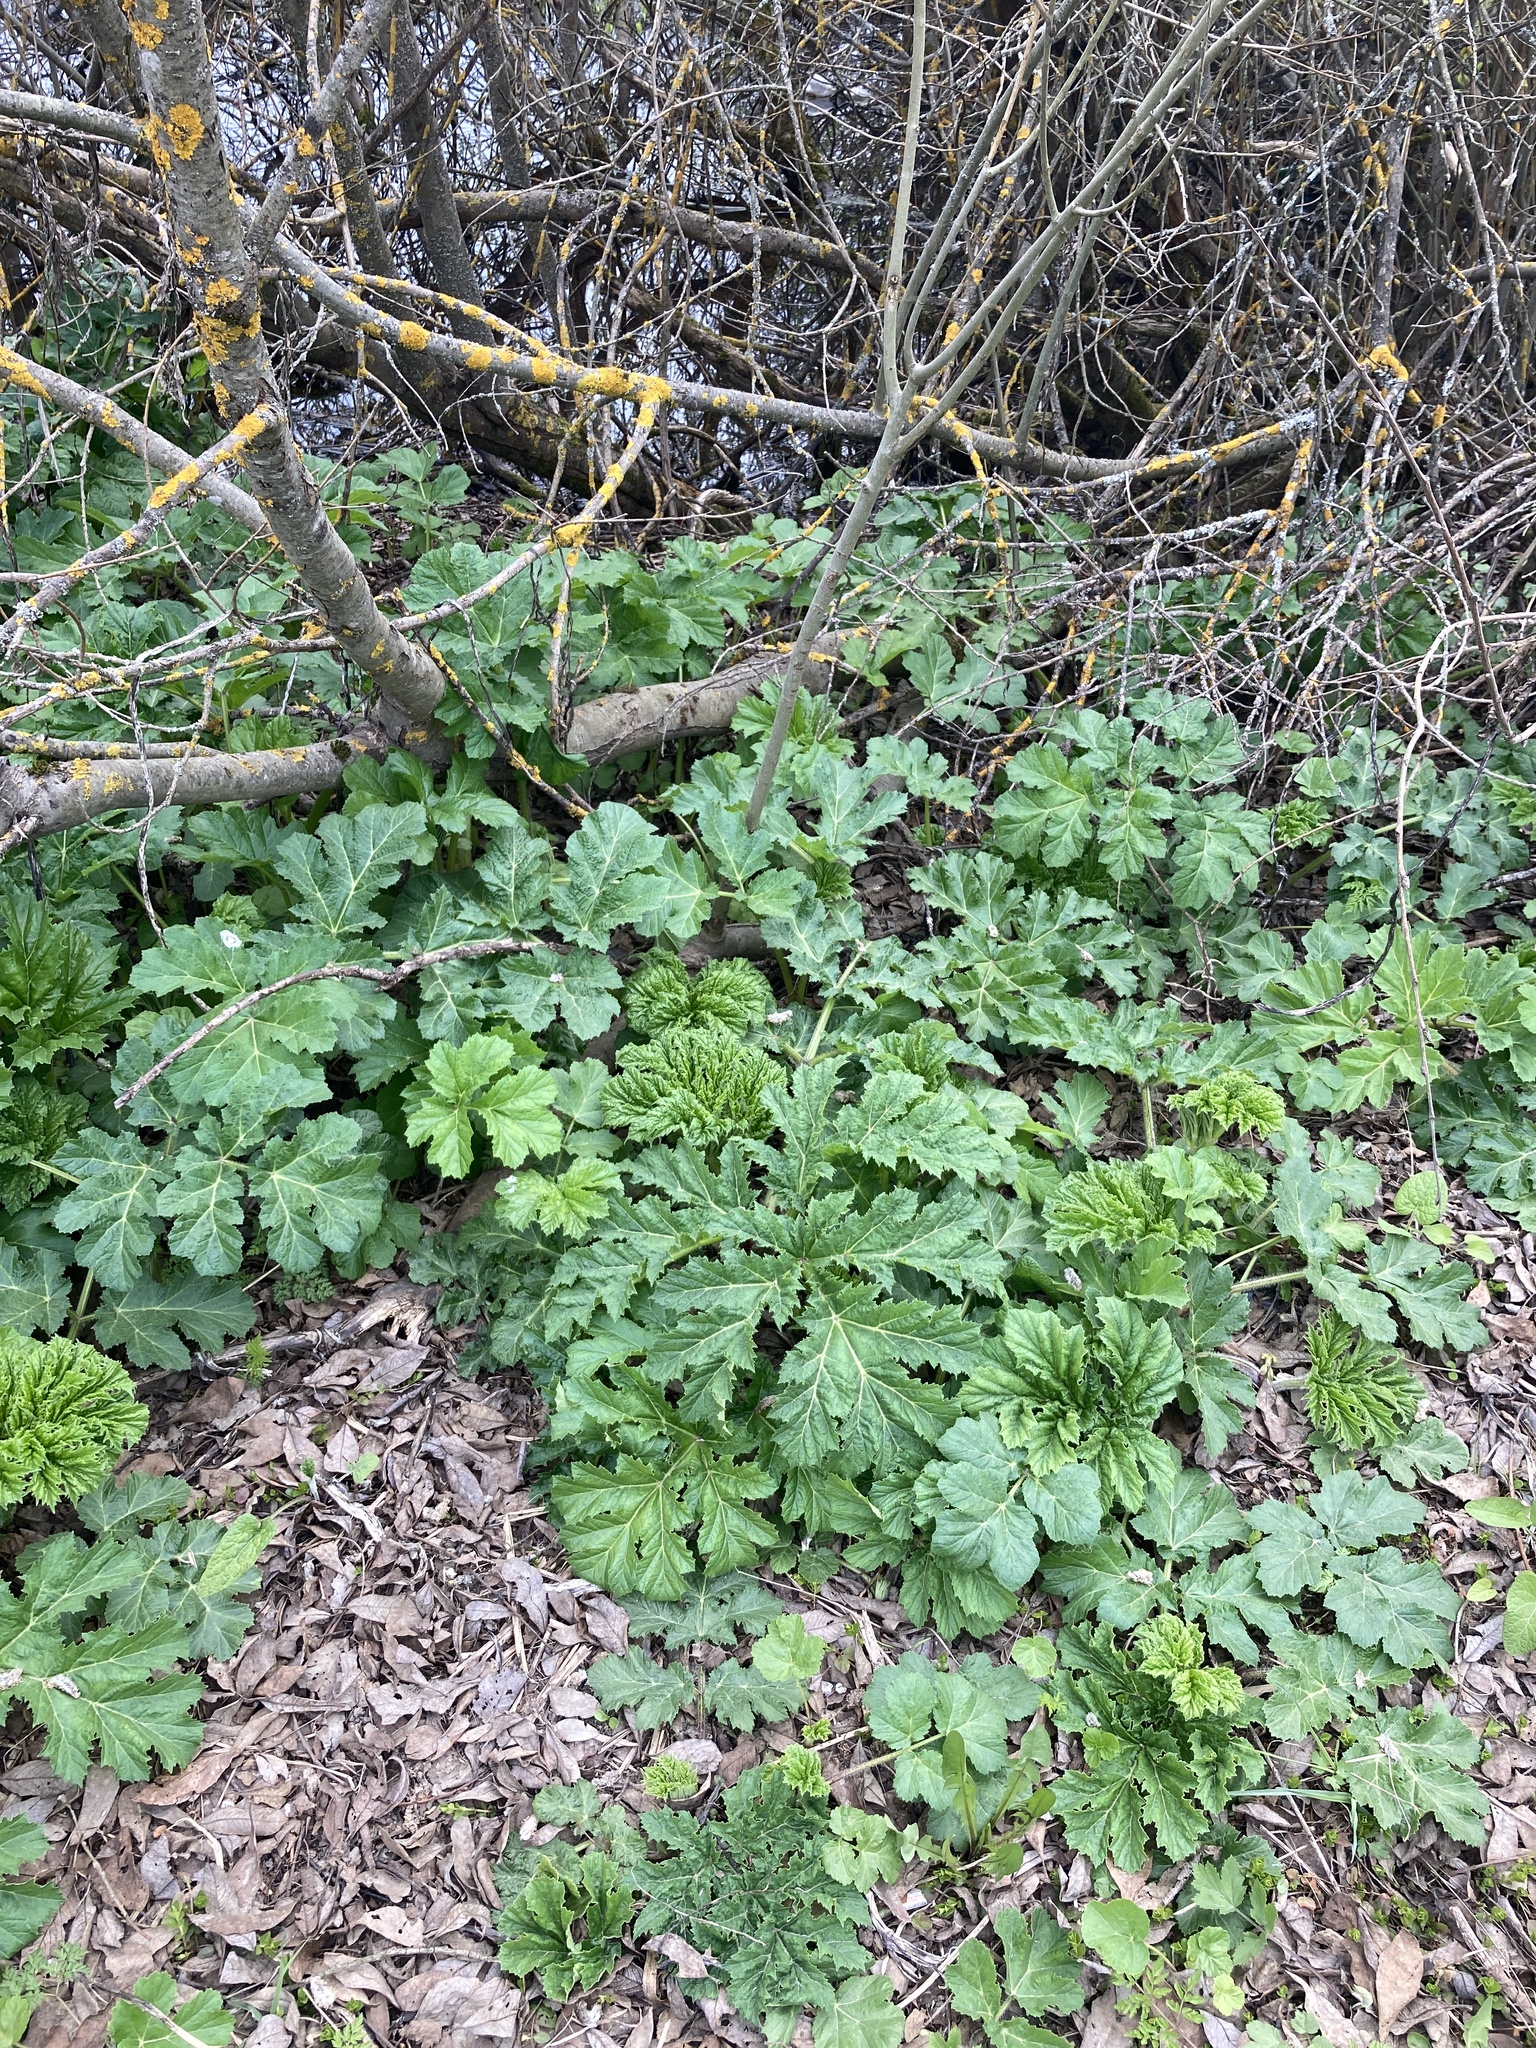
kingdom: Plantae
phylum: Tracheophyta
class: Magnoliopsida
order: Apiales
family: Apiaceae
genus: Heracleum
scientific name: Heracleum sosnowskyi
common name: Sosnowsky's hogweed
